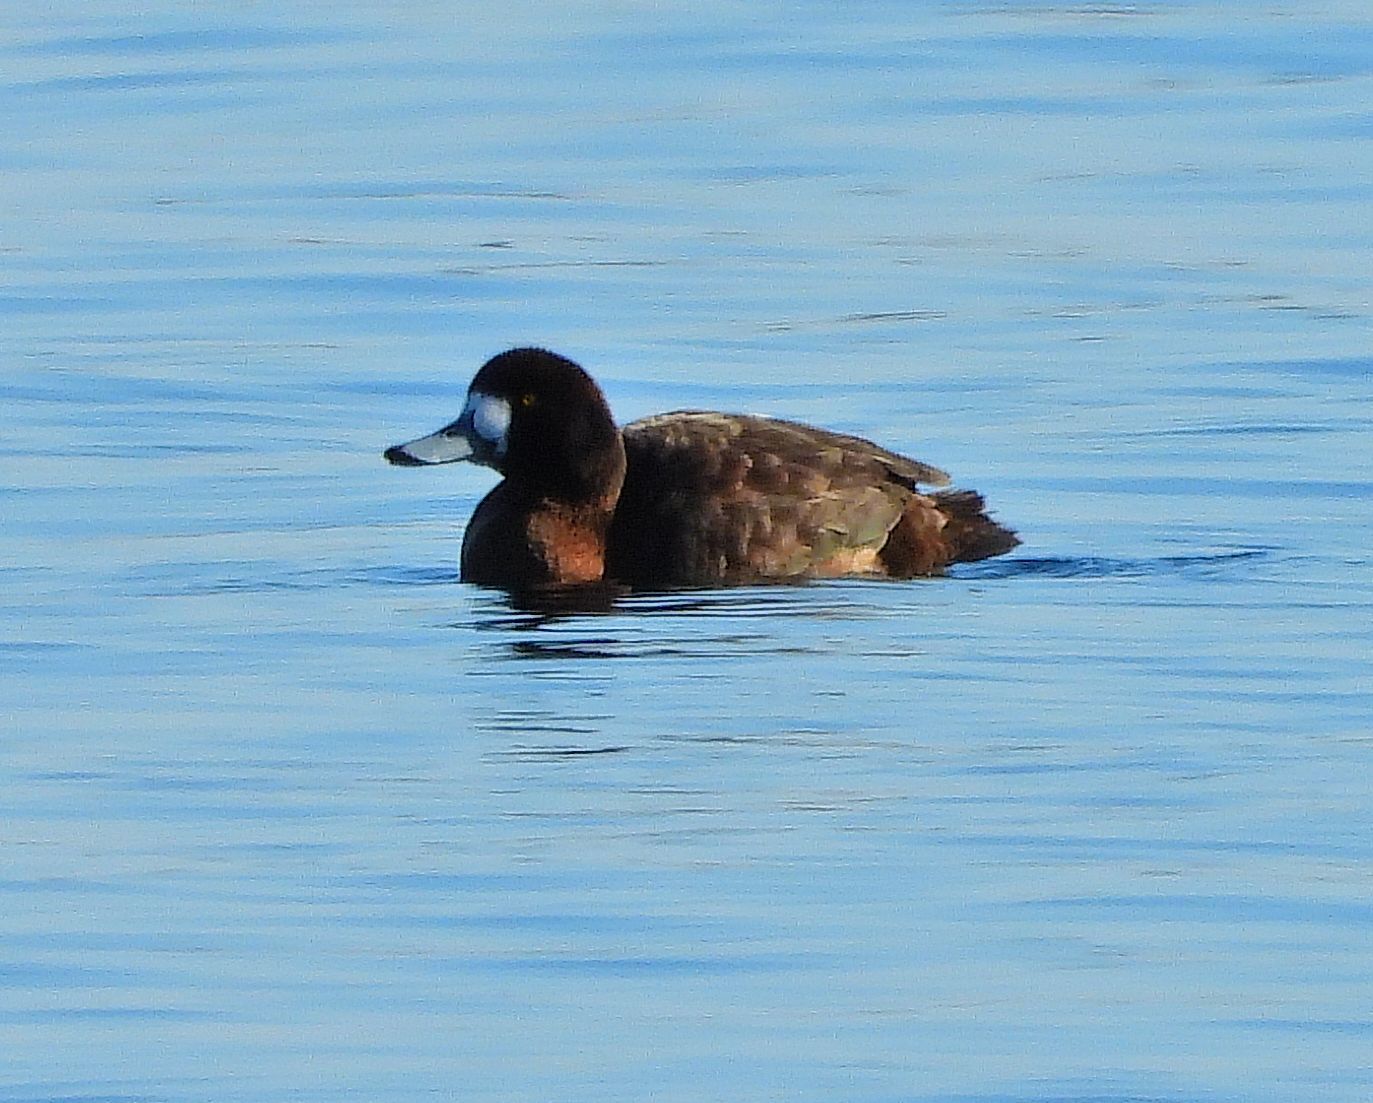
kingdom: Animalia
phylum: Chordata
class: Aves
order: Anseriformes
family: Anatidae
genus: Aythya
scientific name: Aythya marila
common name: Greater scaup
